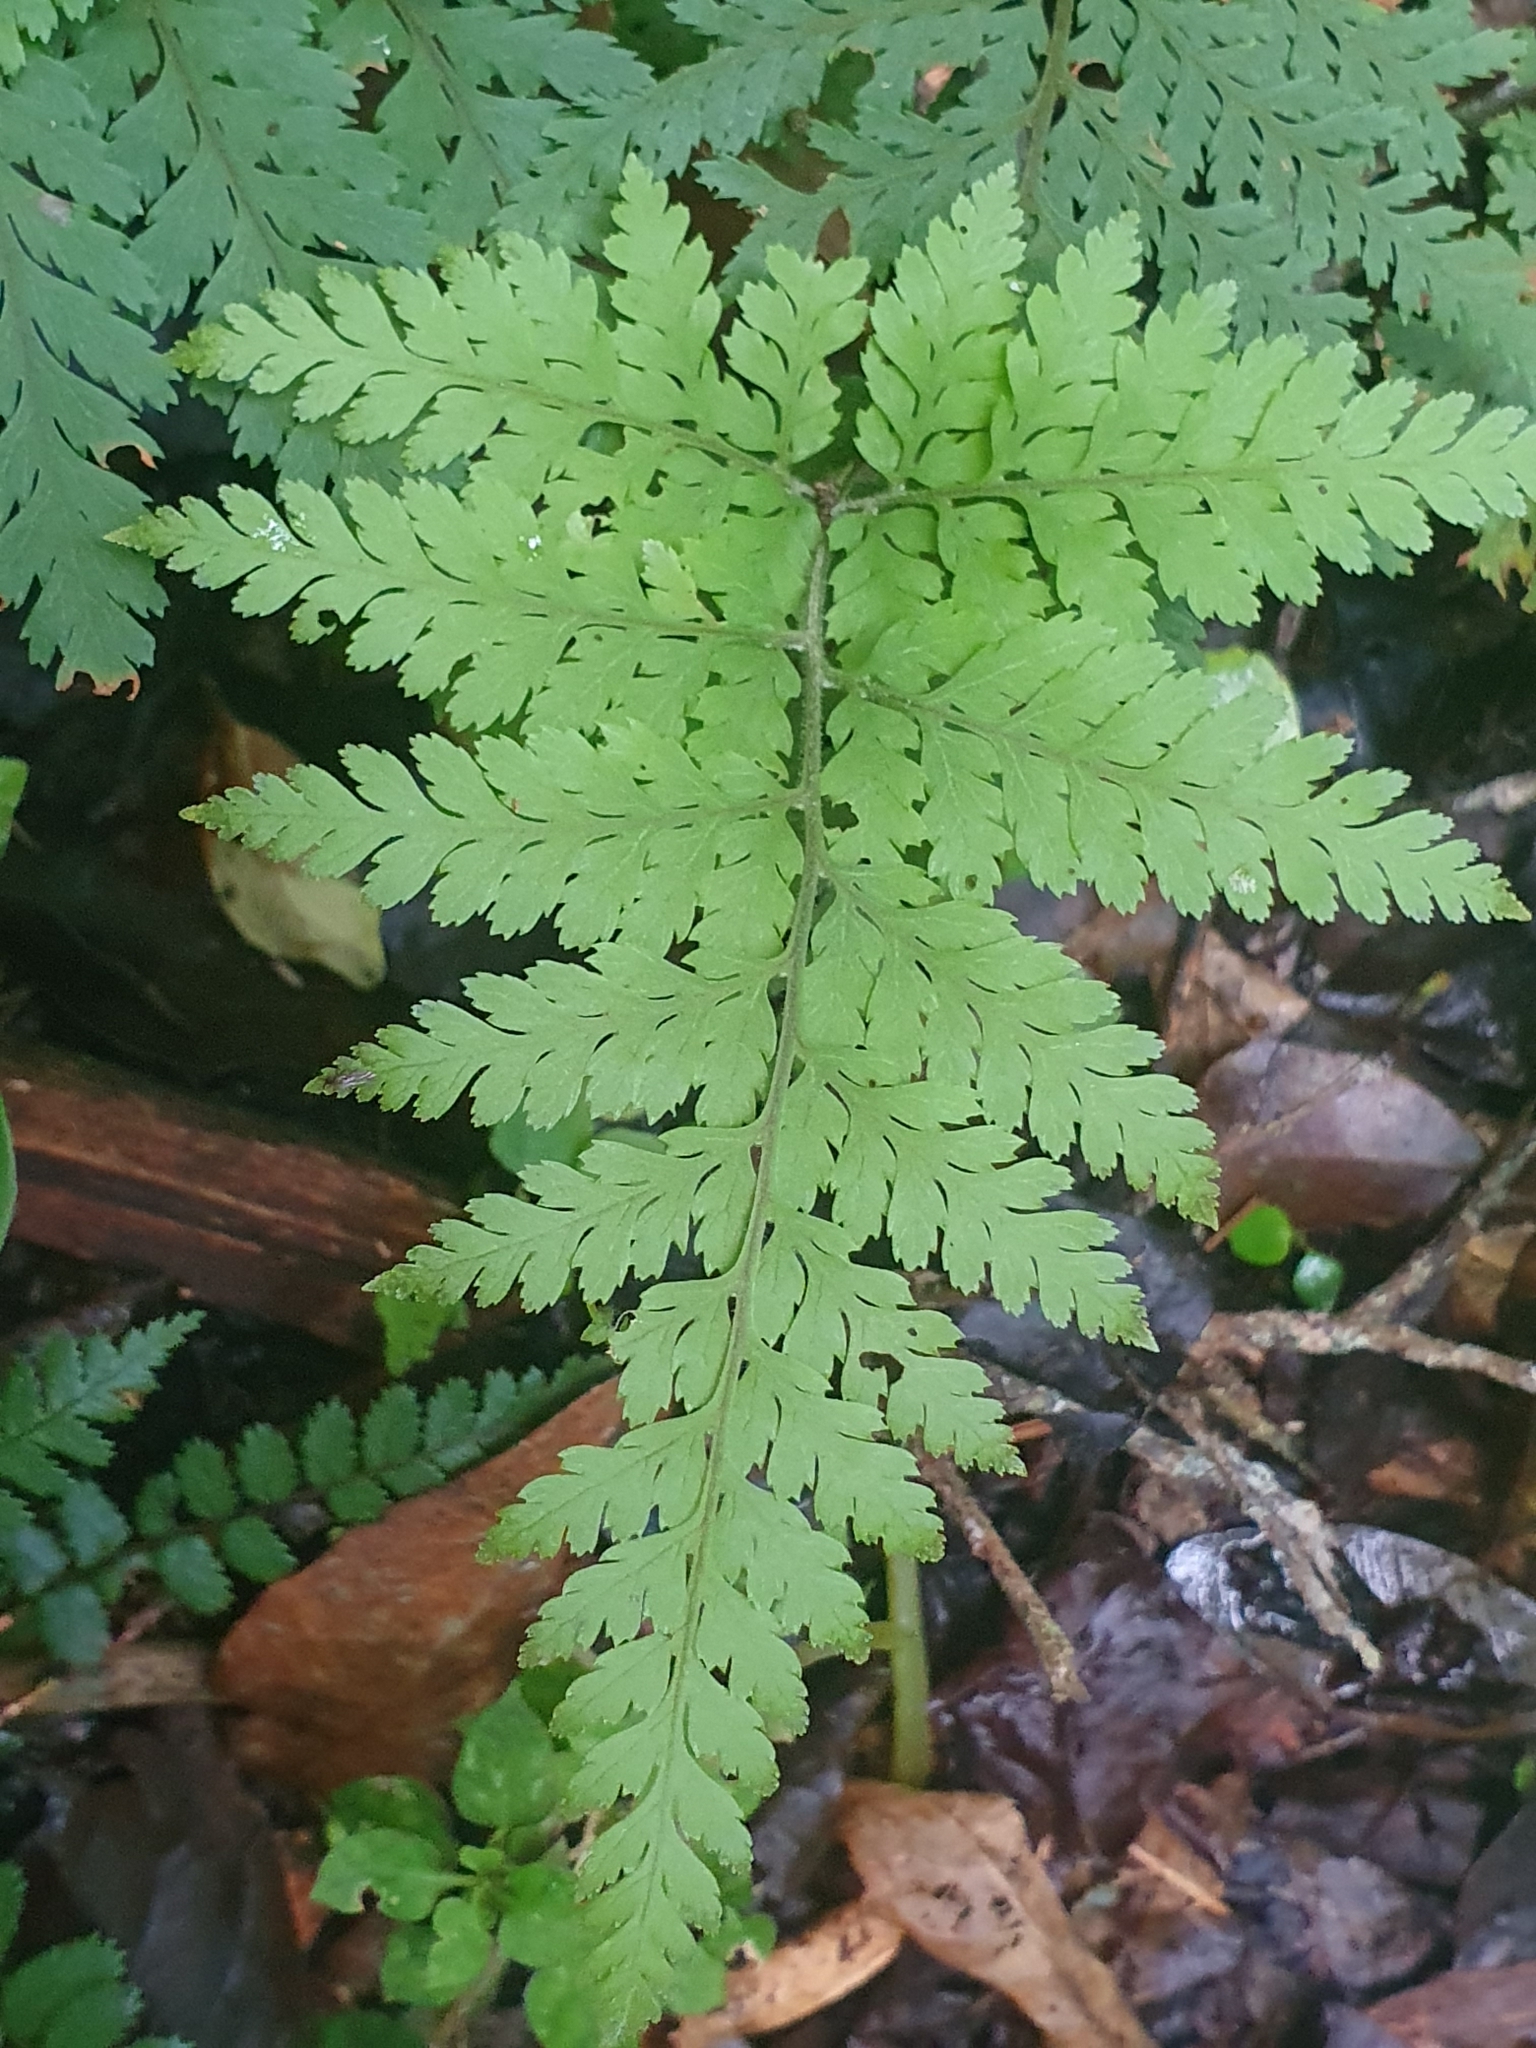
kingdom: Plantae
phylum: Tracheophyta
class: Polypodiopsida
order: Polypodiales
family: Dryopteridaceae
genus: Parapolystichum
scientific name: Parapolystichum microsorum
